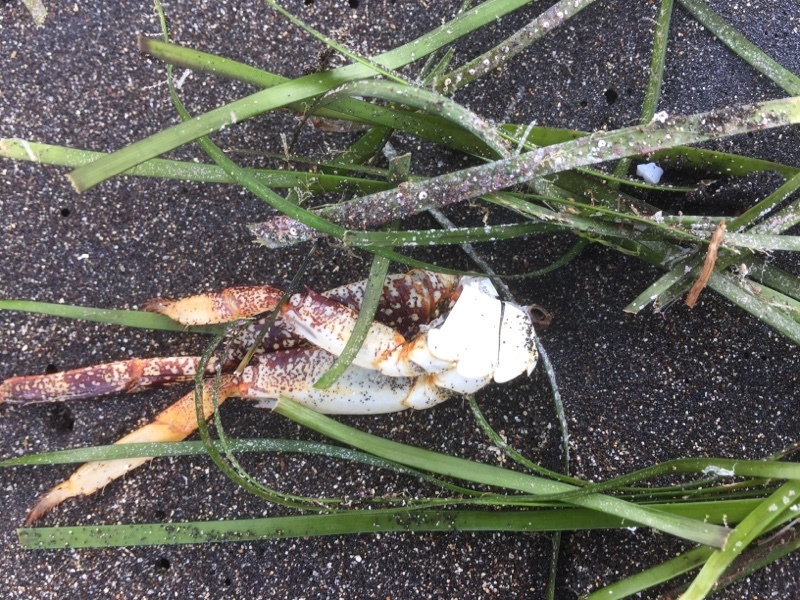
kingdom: Plantae
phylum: Tracheophyta
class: Liliopsida
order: Alismatales
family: Cymodoceaceae
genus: Cymodocea
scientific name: Cymodocea nodosa
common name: Slender seagrass
